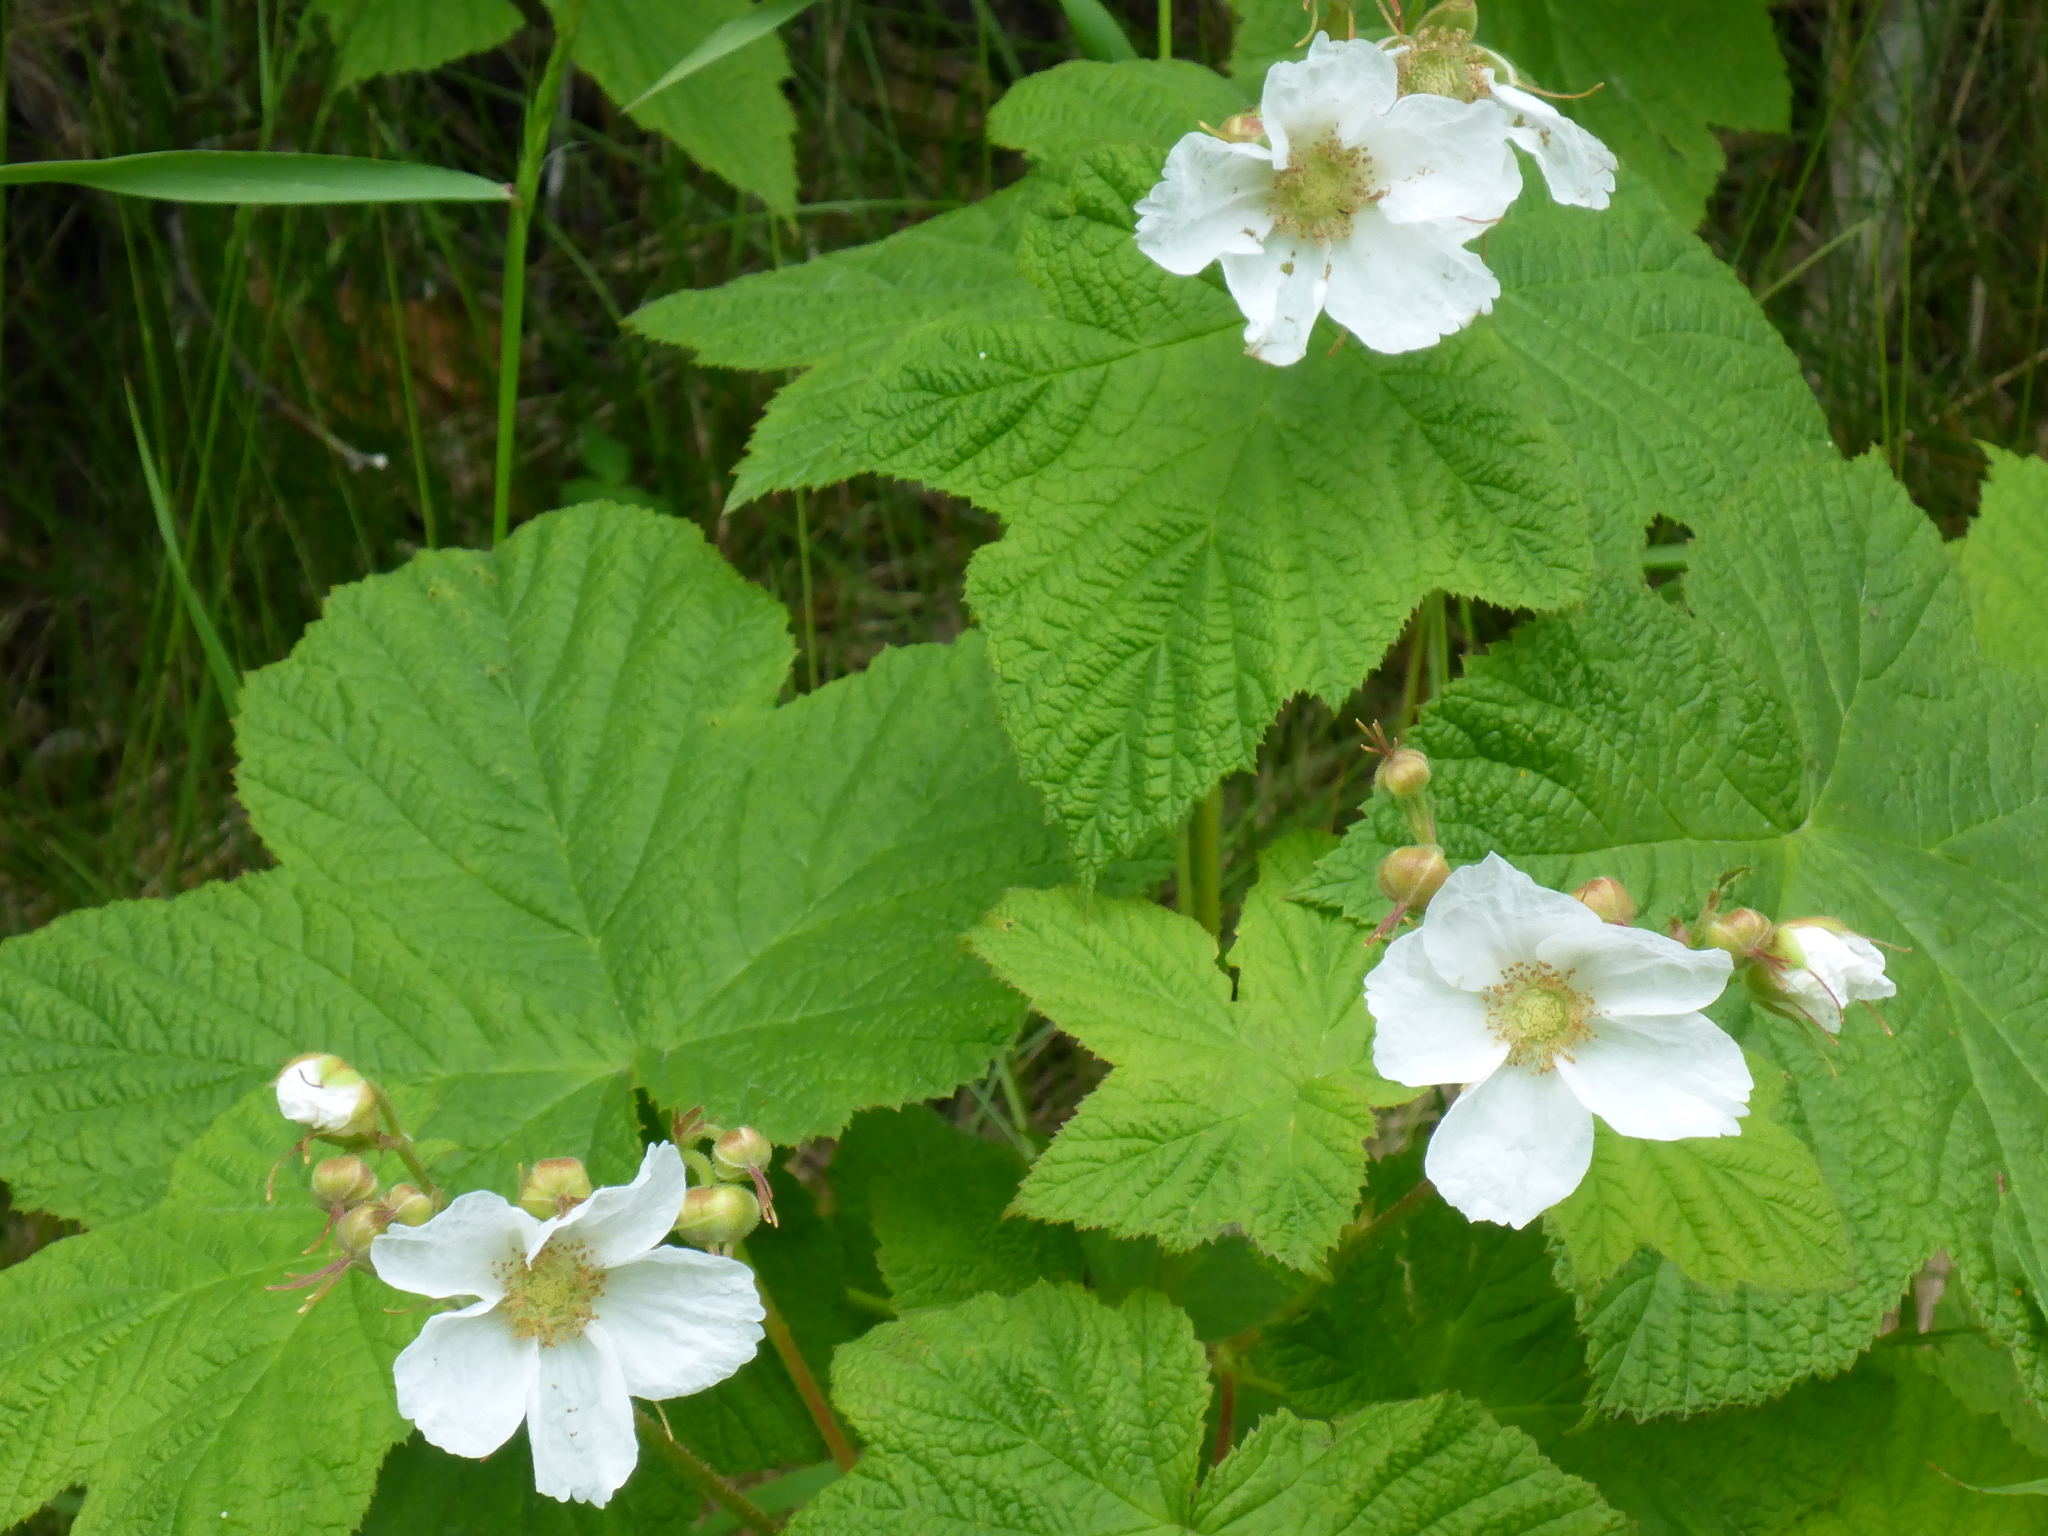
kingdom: Plantae
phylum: Tracheophyta
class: Magnoliopsida
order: Rosales
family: Rosaceae
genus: Rubus
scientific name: Rubus parviflorus
